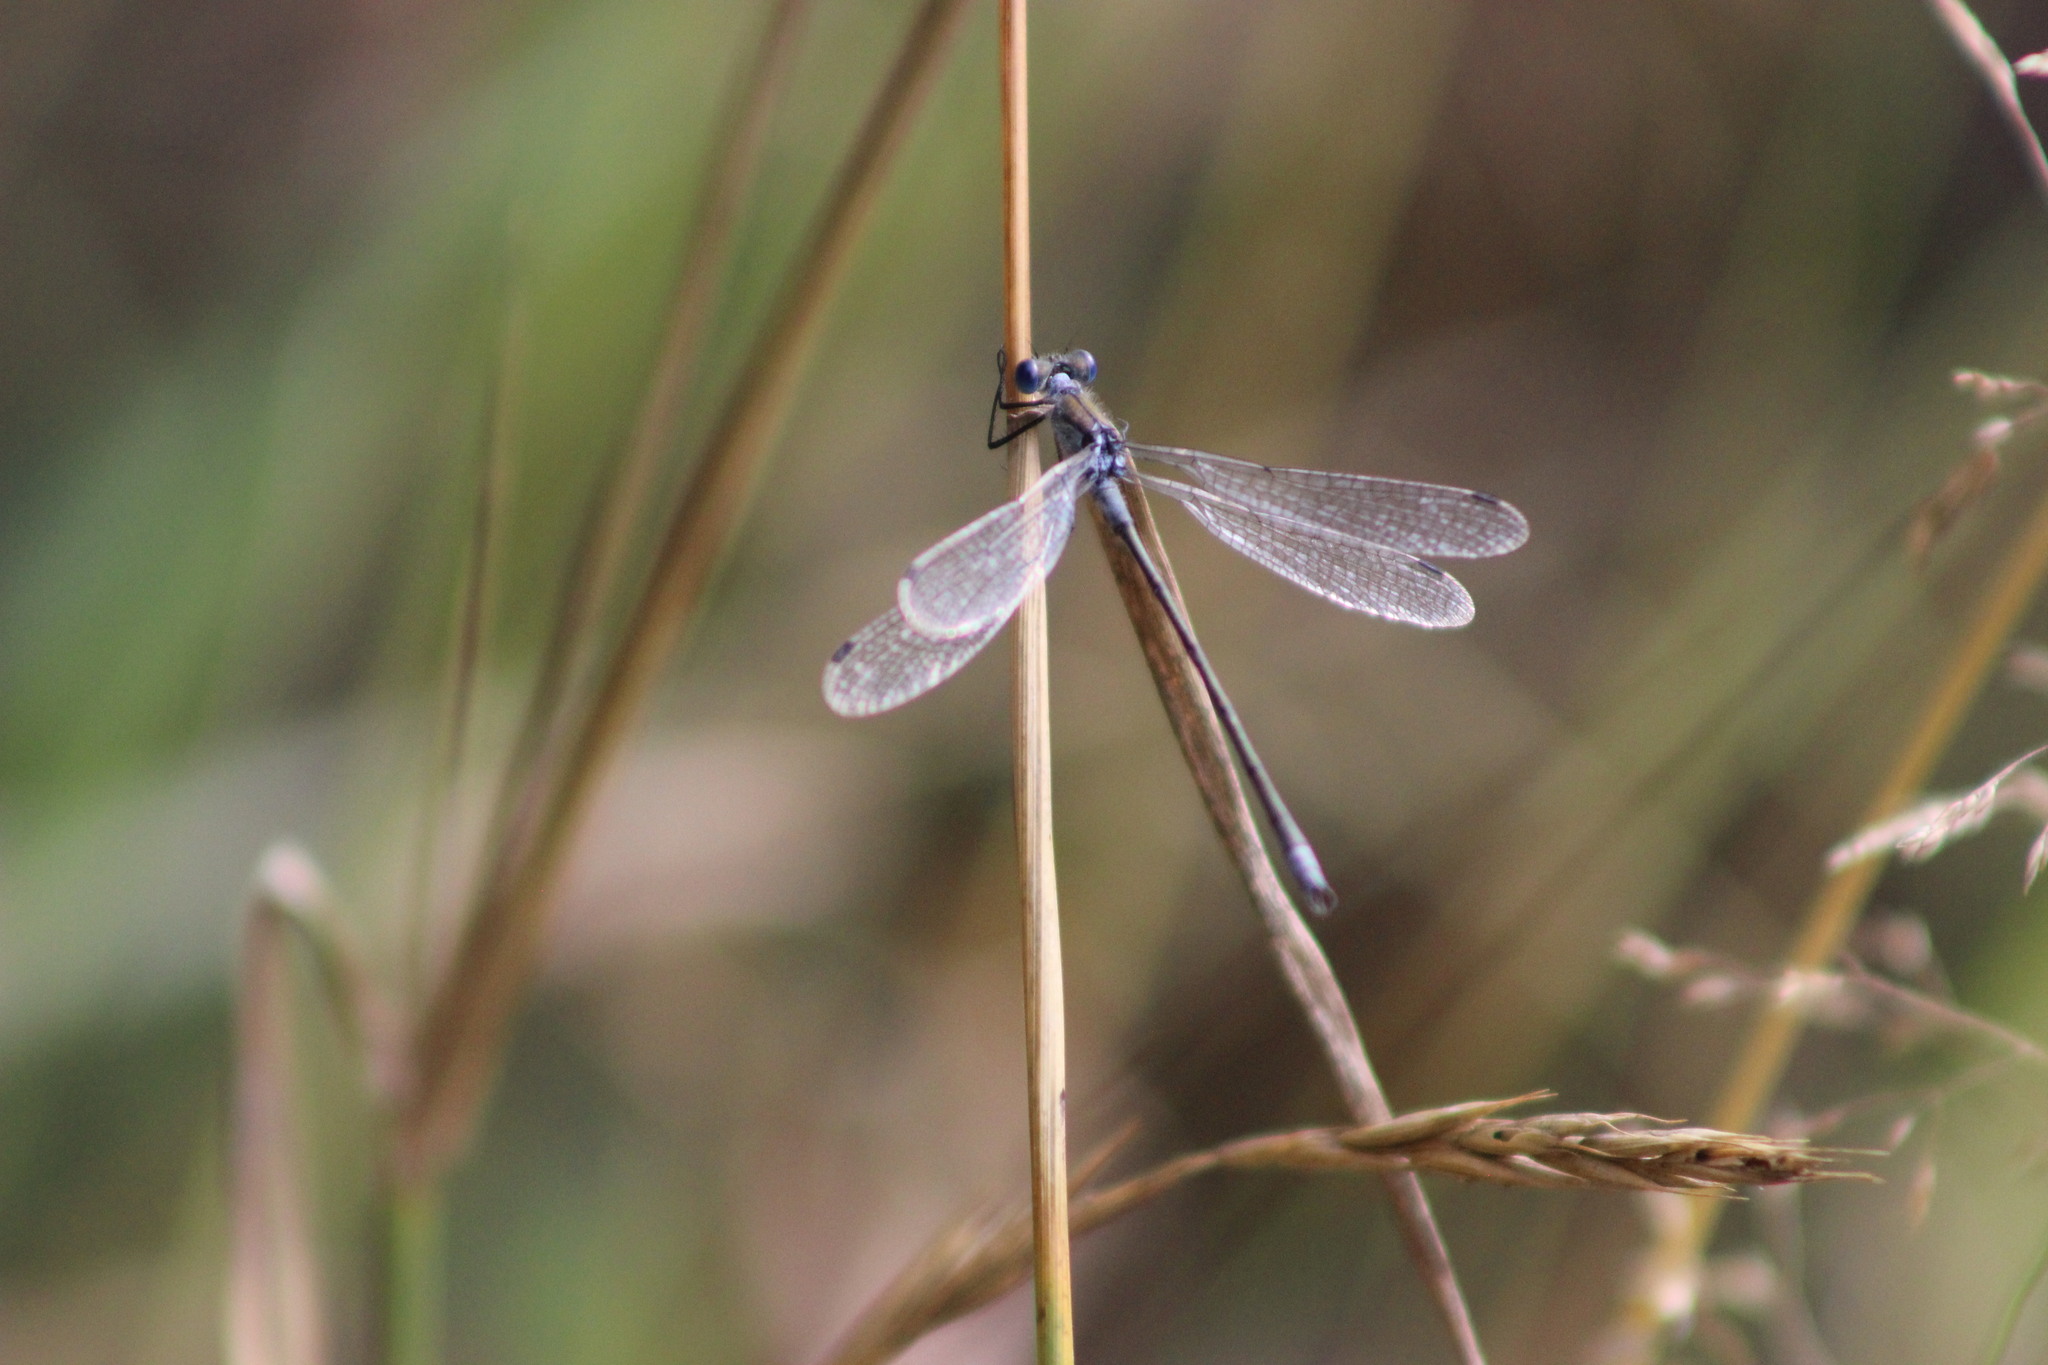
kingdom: Animalia
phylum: Arthropoda
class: Insecta
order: Odonata
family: Lestidae
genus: Lestes
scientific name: Lestes sponsa
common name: Common spreadwing
